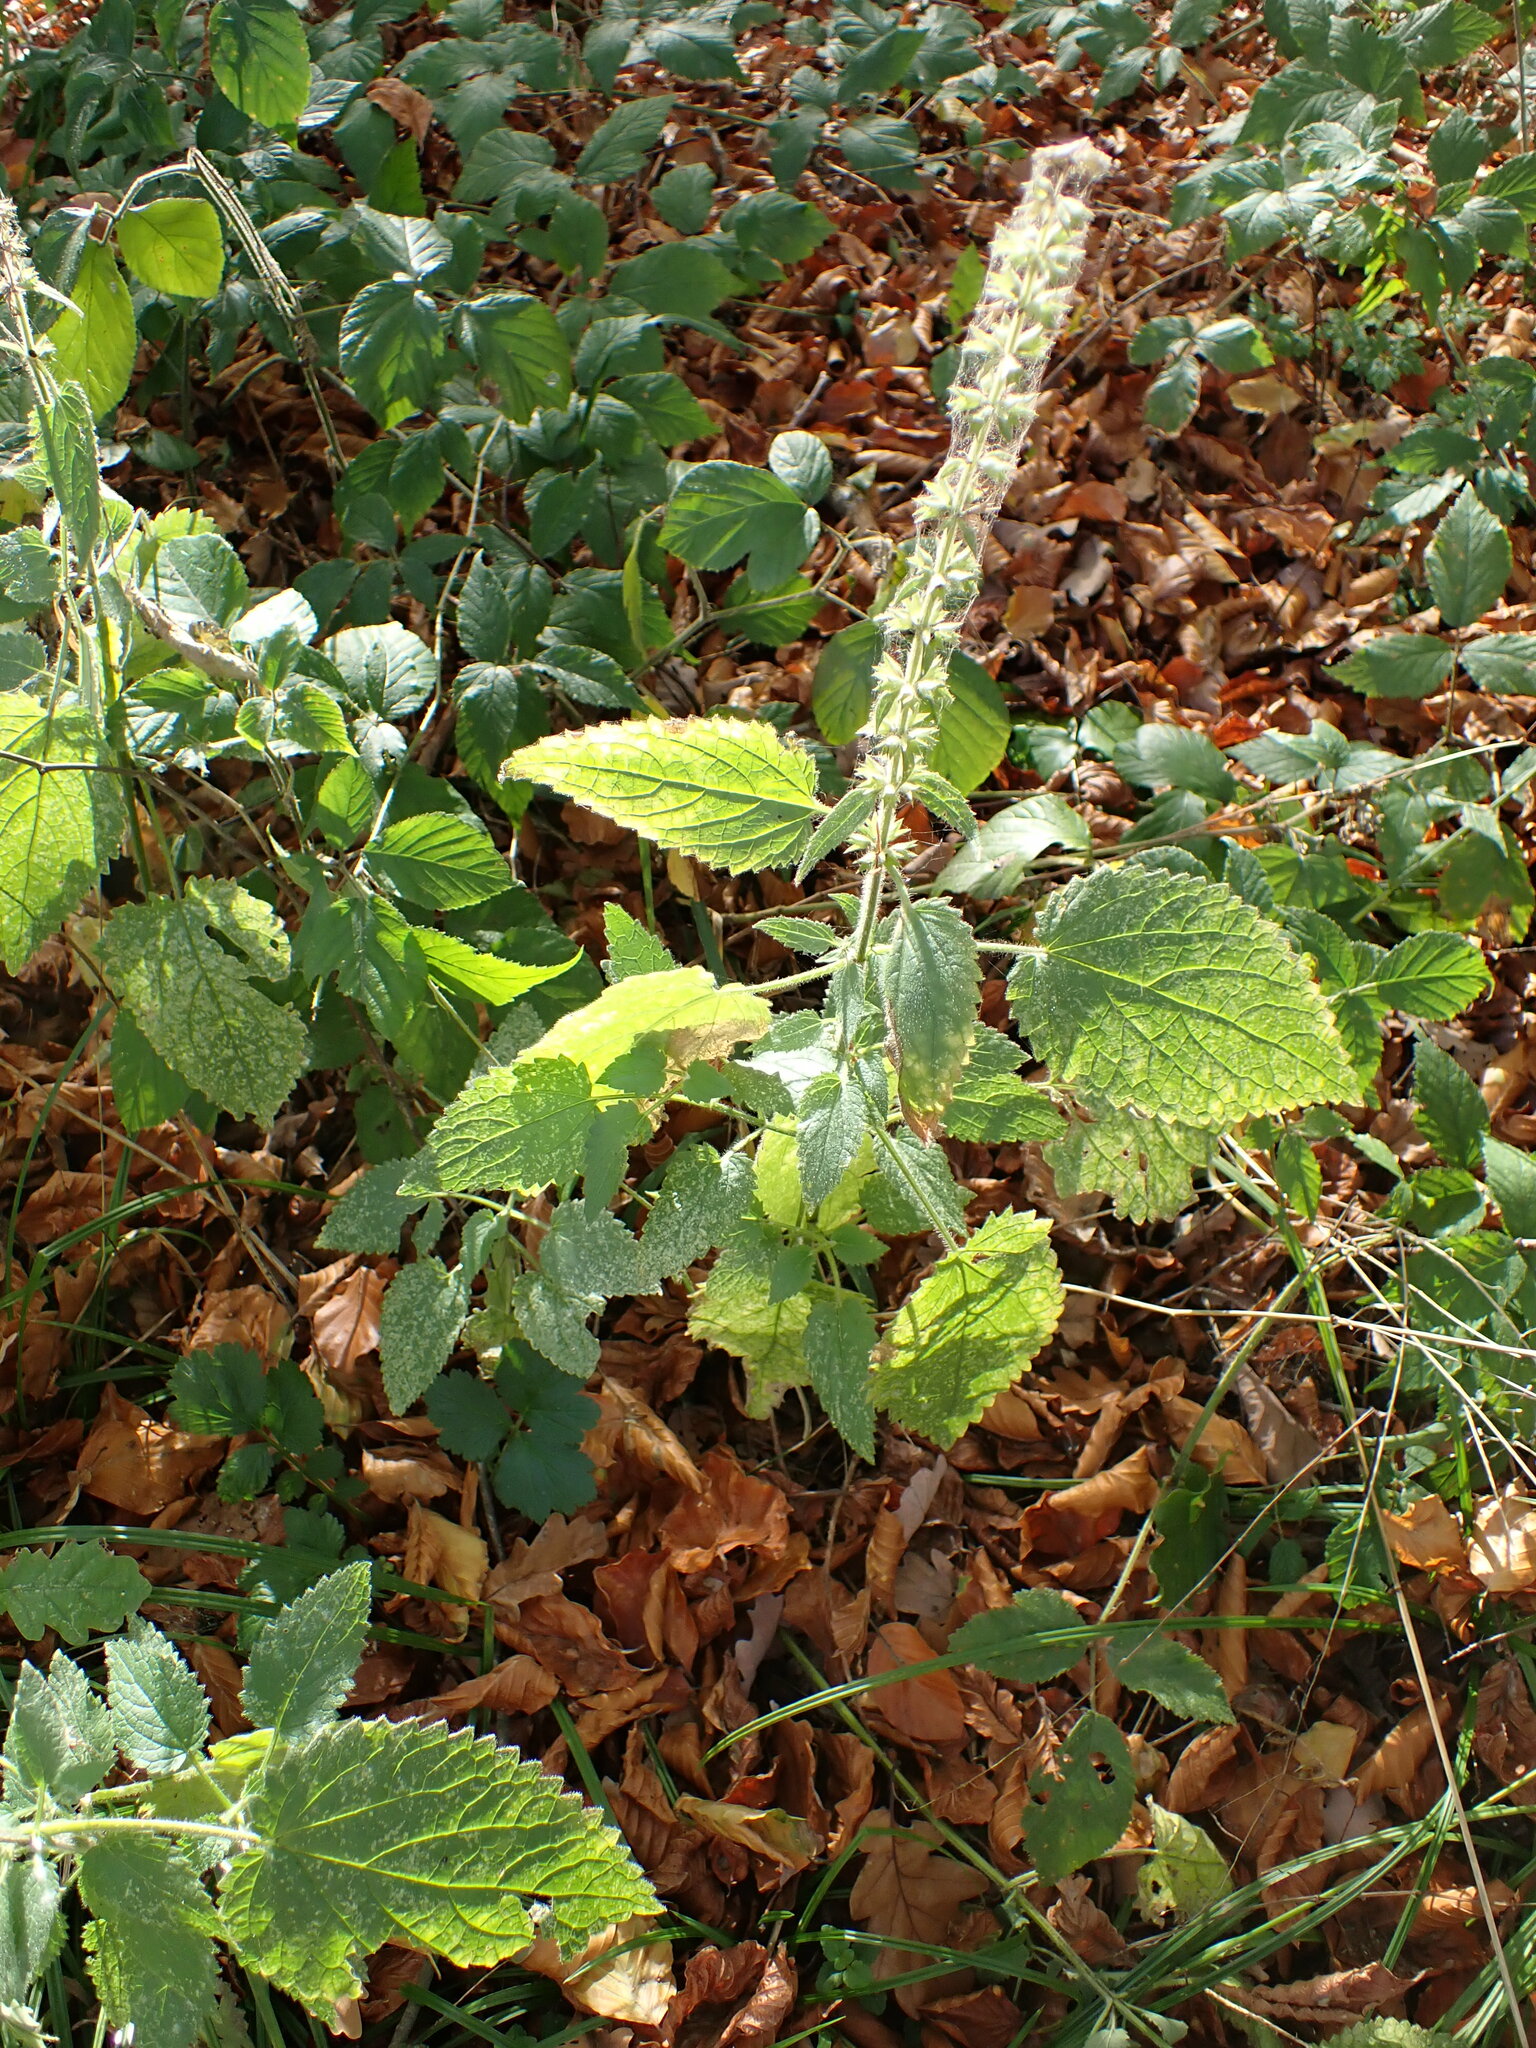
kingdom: Plantae
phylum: Tracheophyta
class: Magnoliopsida
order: Lamiales
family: Lamiaceae
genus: Stachys
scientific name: Stachys sylvatica
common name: Hedge woundwort
